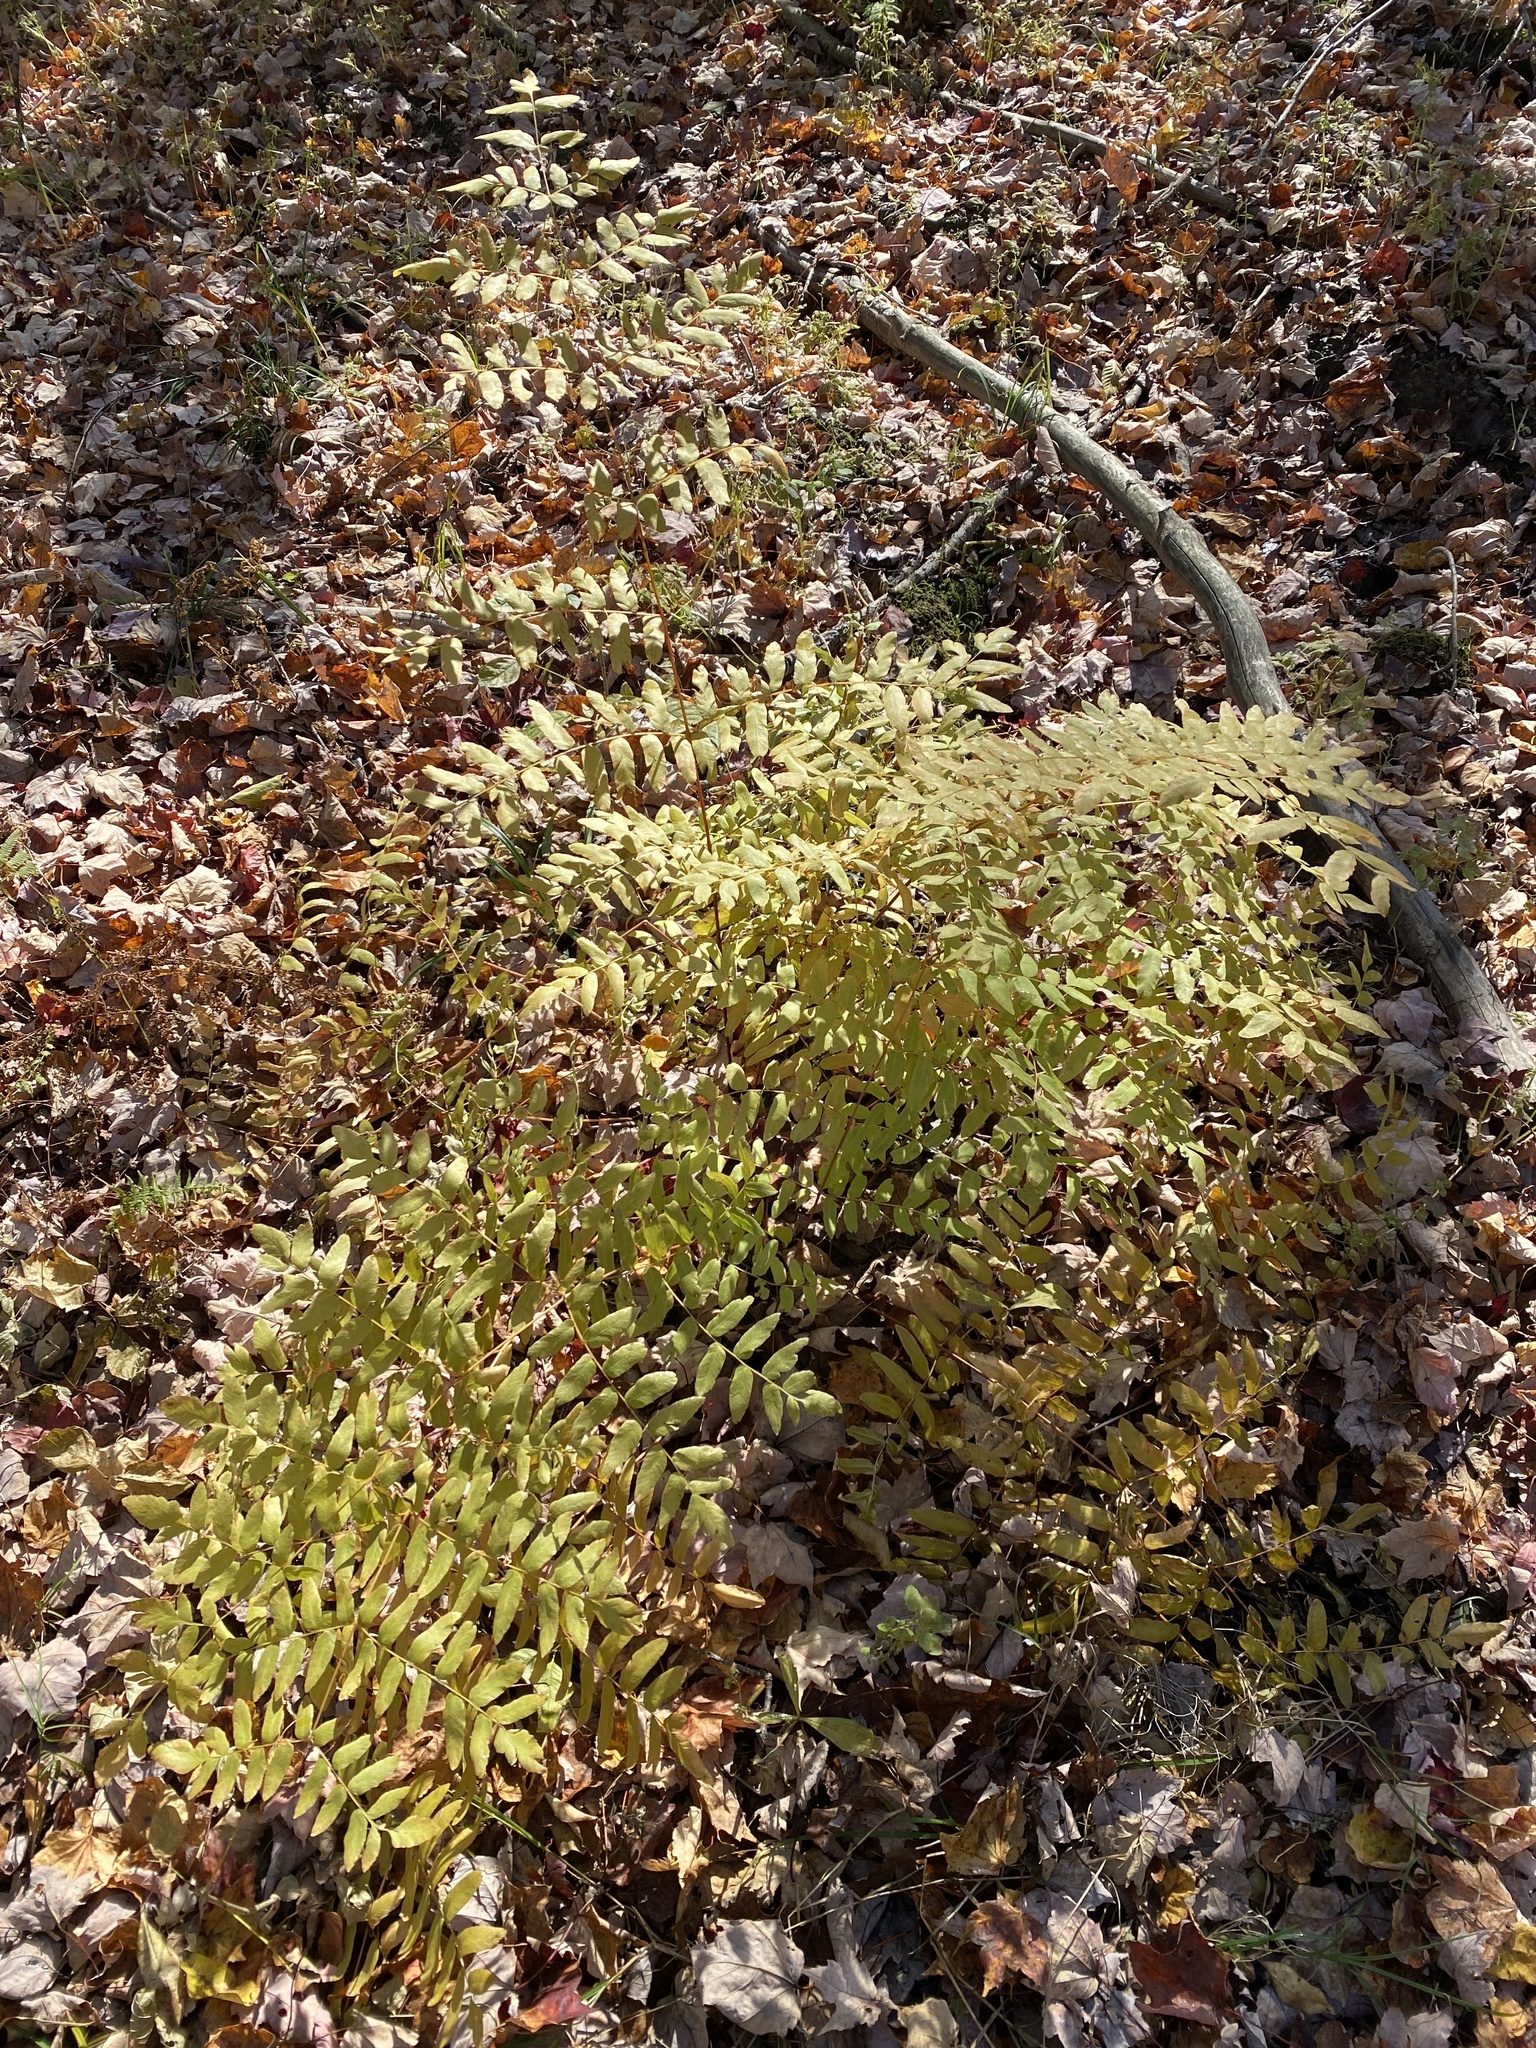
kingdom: Plantae
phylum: Tracheophyta
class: Polypodiopsida
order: Osmundales
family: Osmundaceae
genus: Osmunda
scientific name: Osmunda spectabilis
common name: American royal fern
